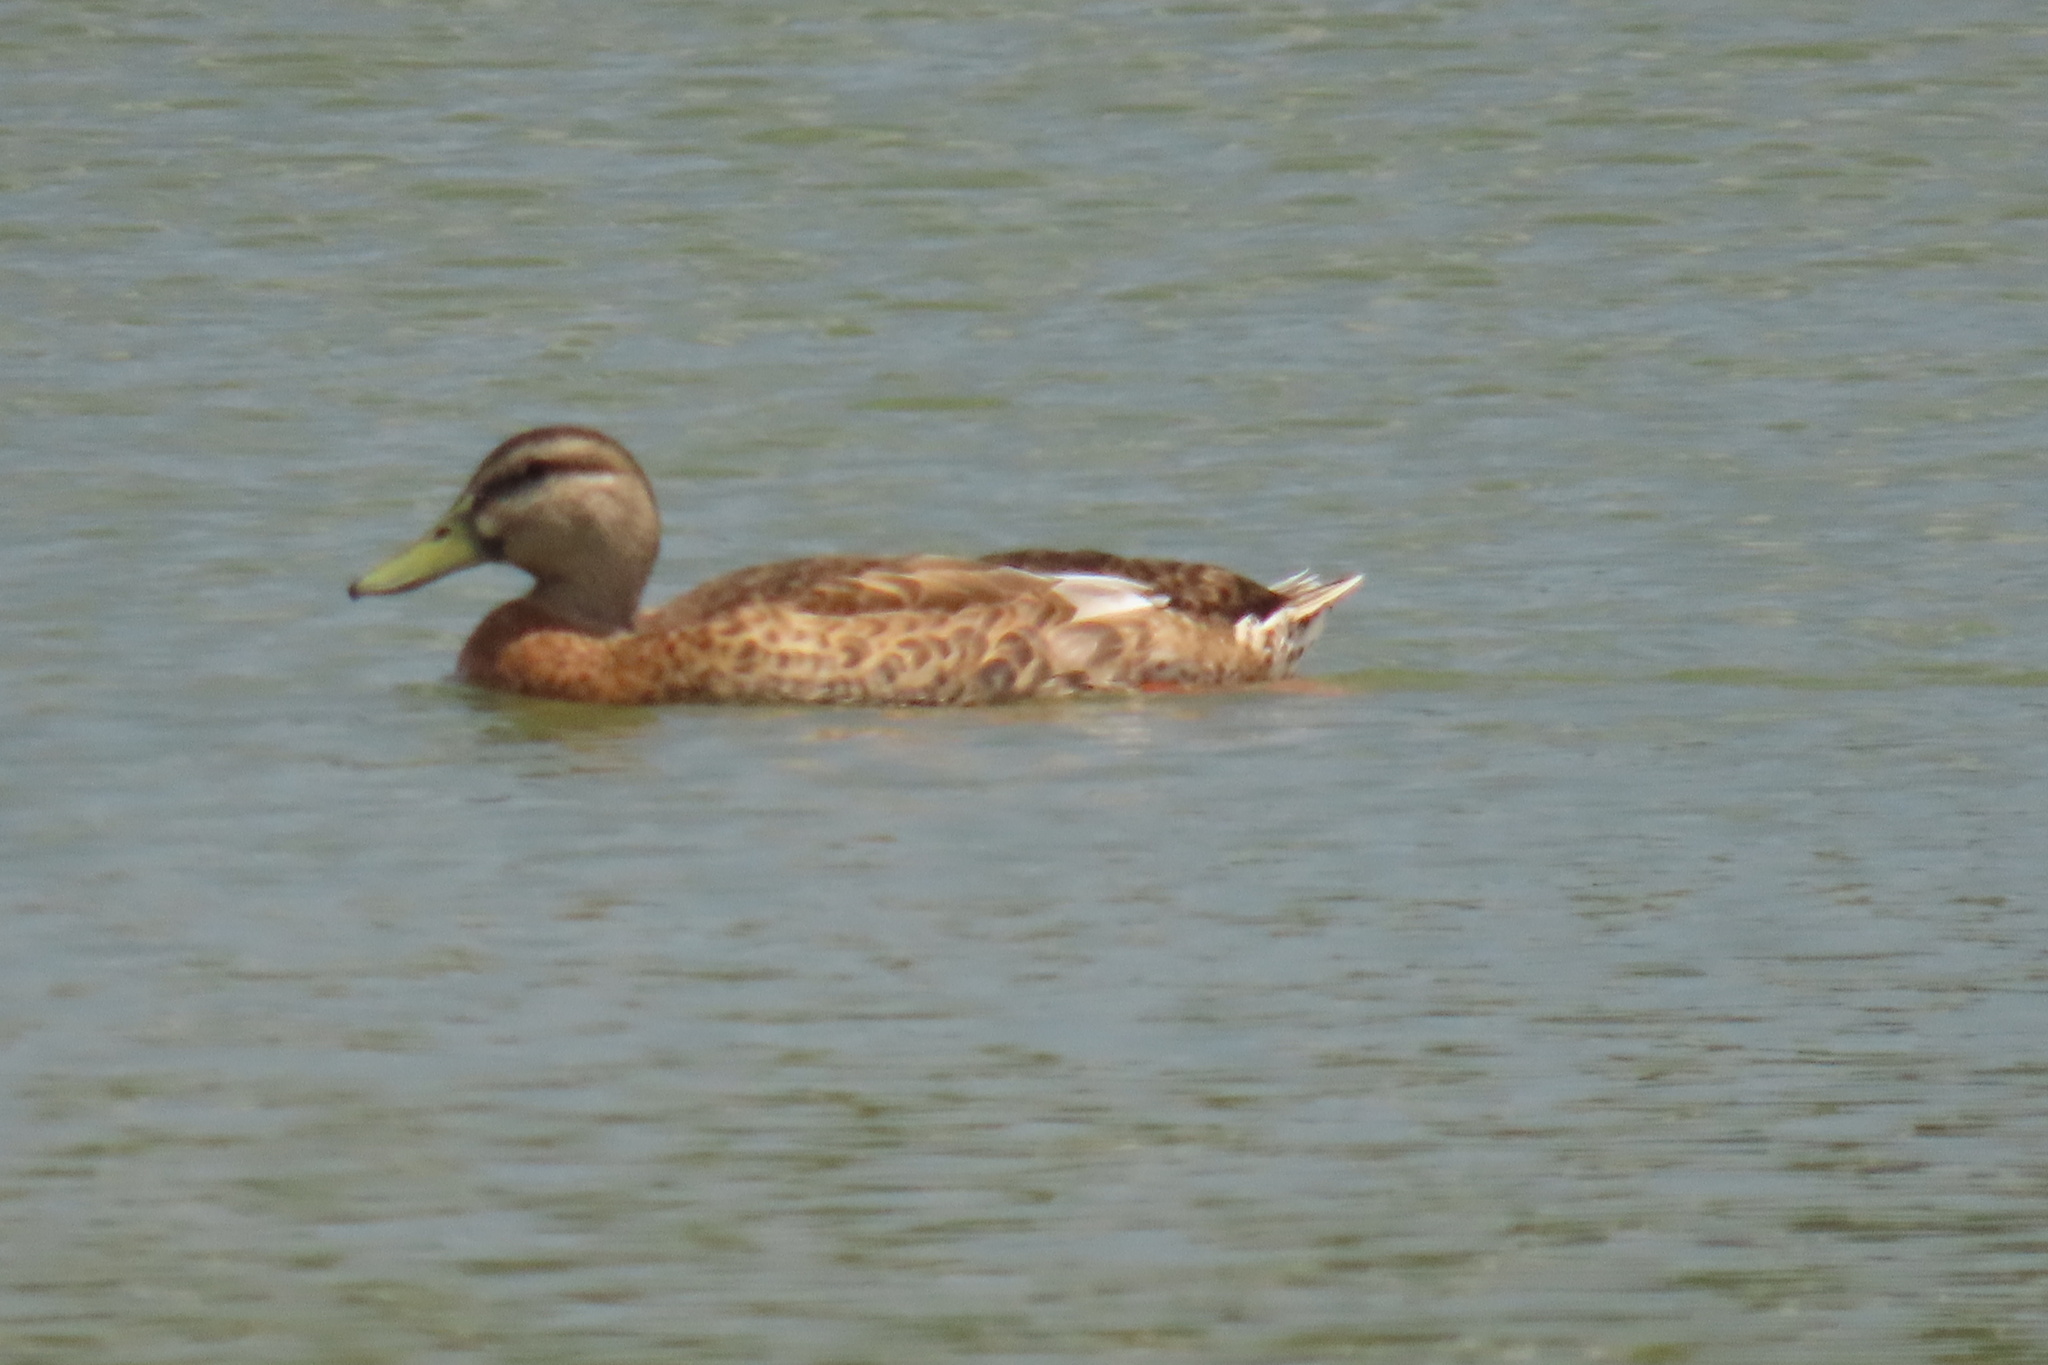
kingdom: Animalia
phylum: Chordata
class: Aves
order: Anseriformes
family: Anatidae
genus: Anas
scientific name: Anas platyrhynchos
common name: Mallard
